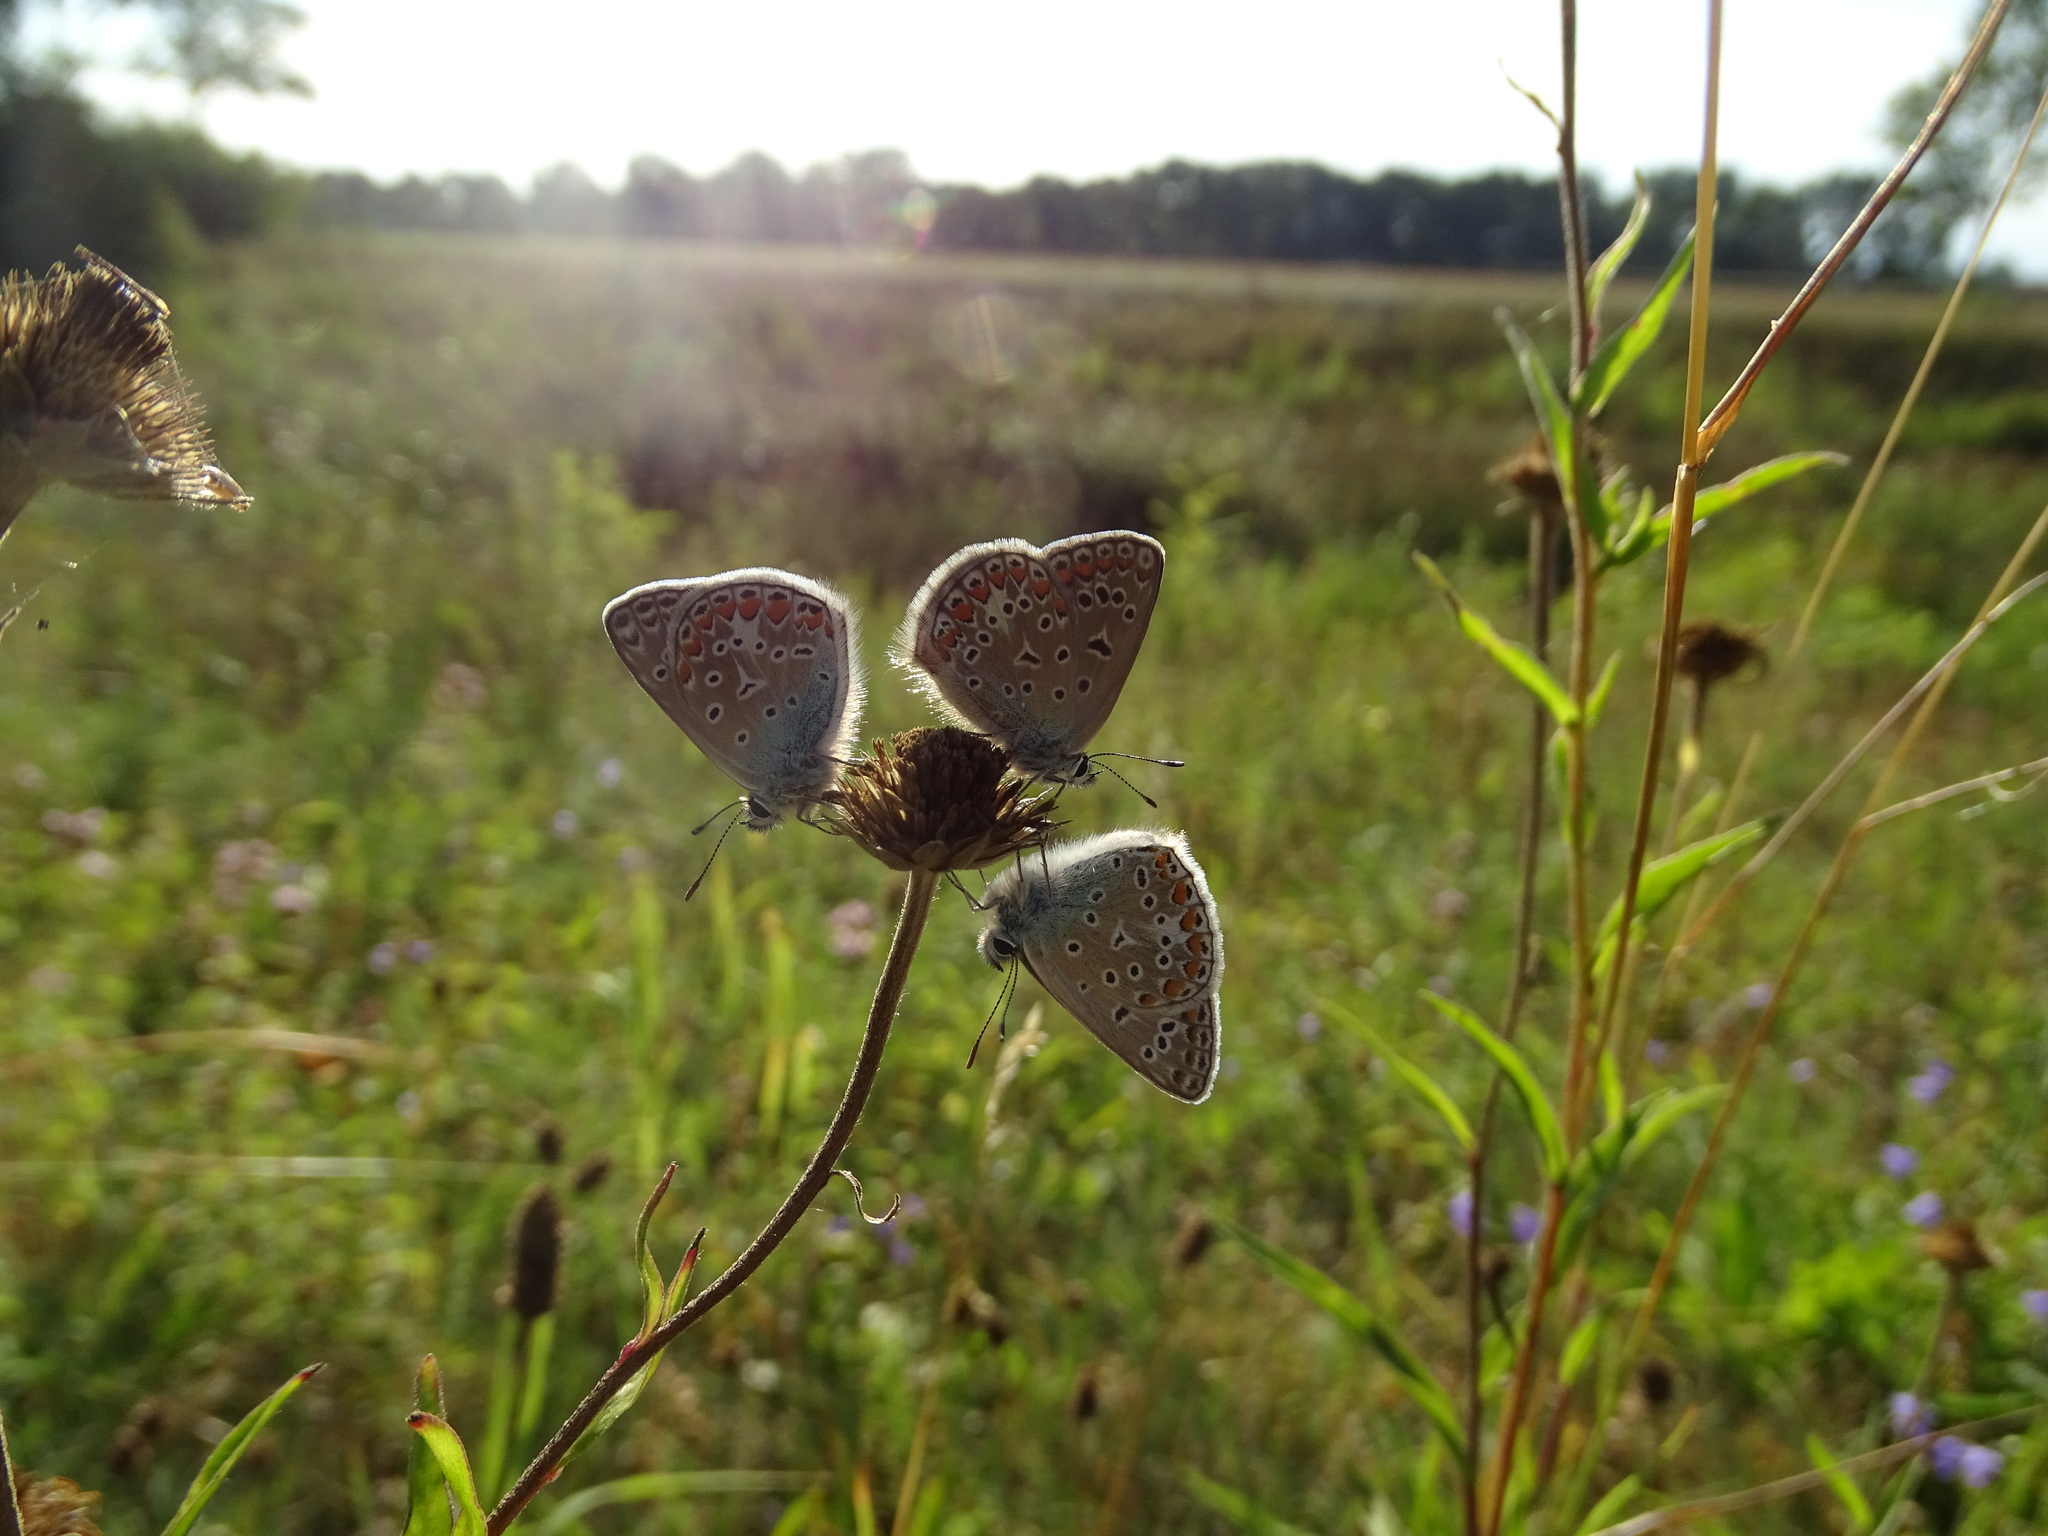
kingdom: Animalia
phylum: Arthropoda
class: Insecta
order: Lepidoptera
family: Lycaenidae
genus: Polyommatus
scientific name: Polyommatus icarus
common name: Common blue
